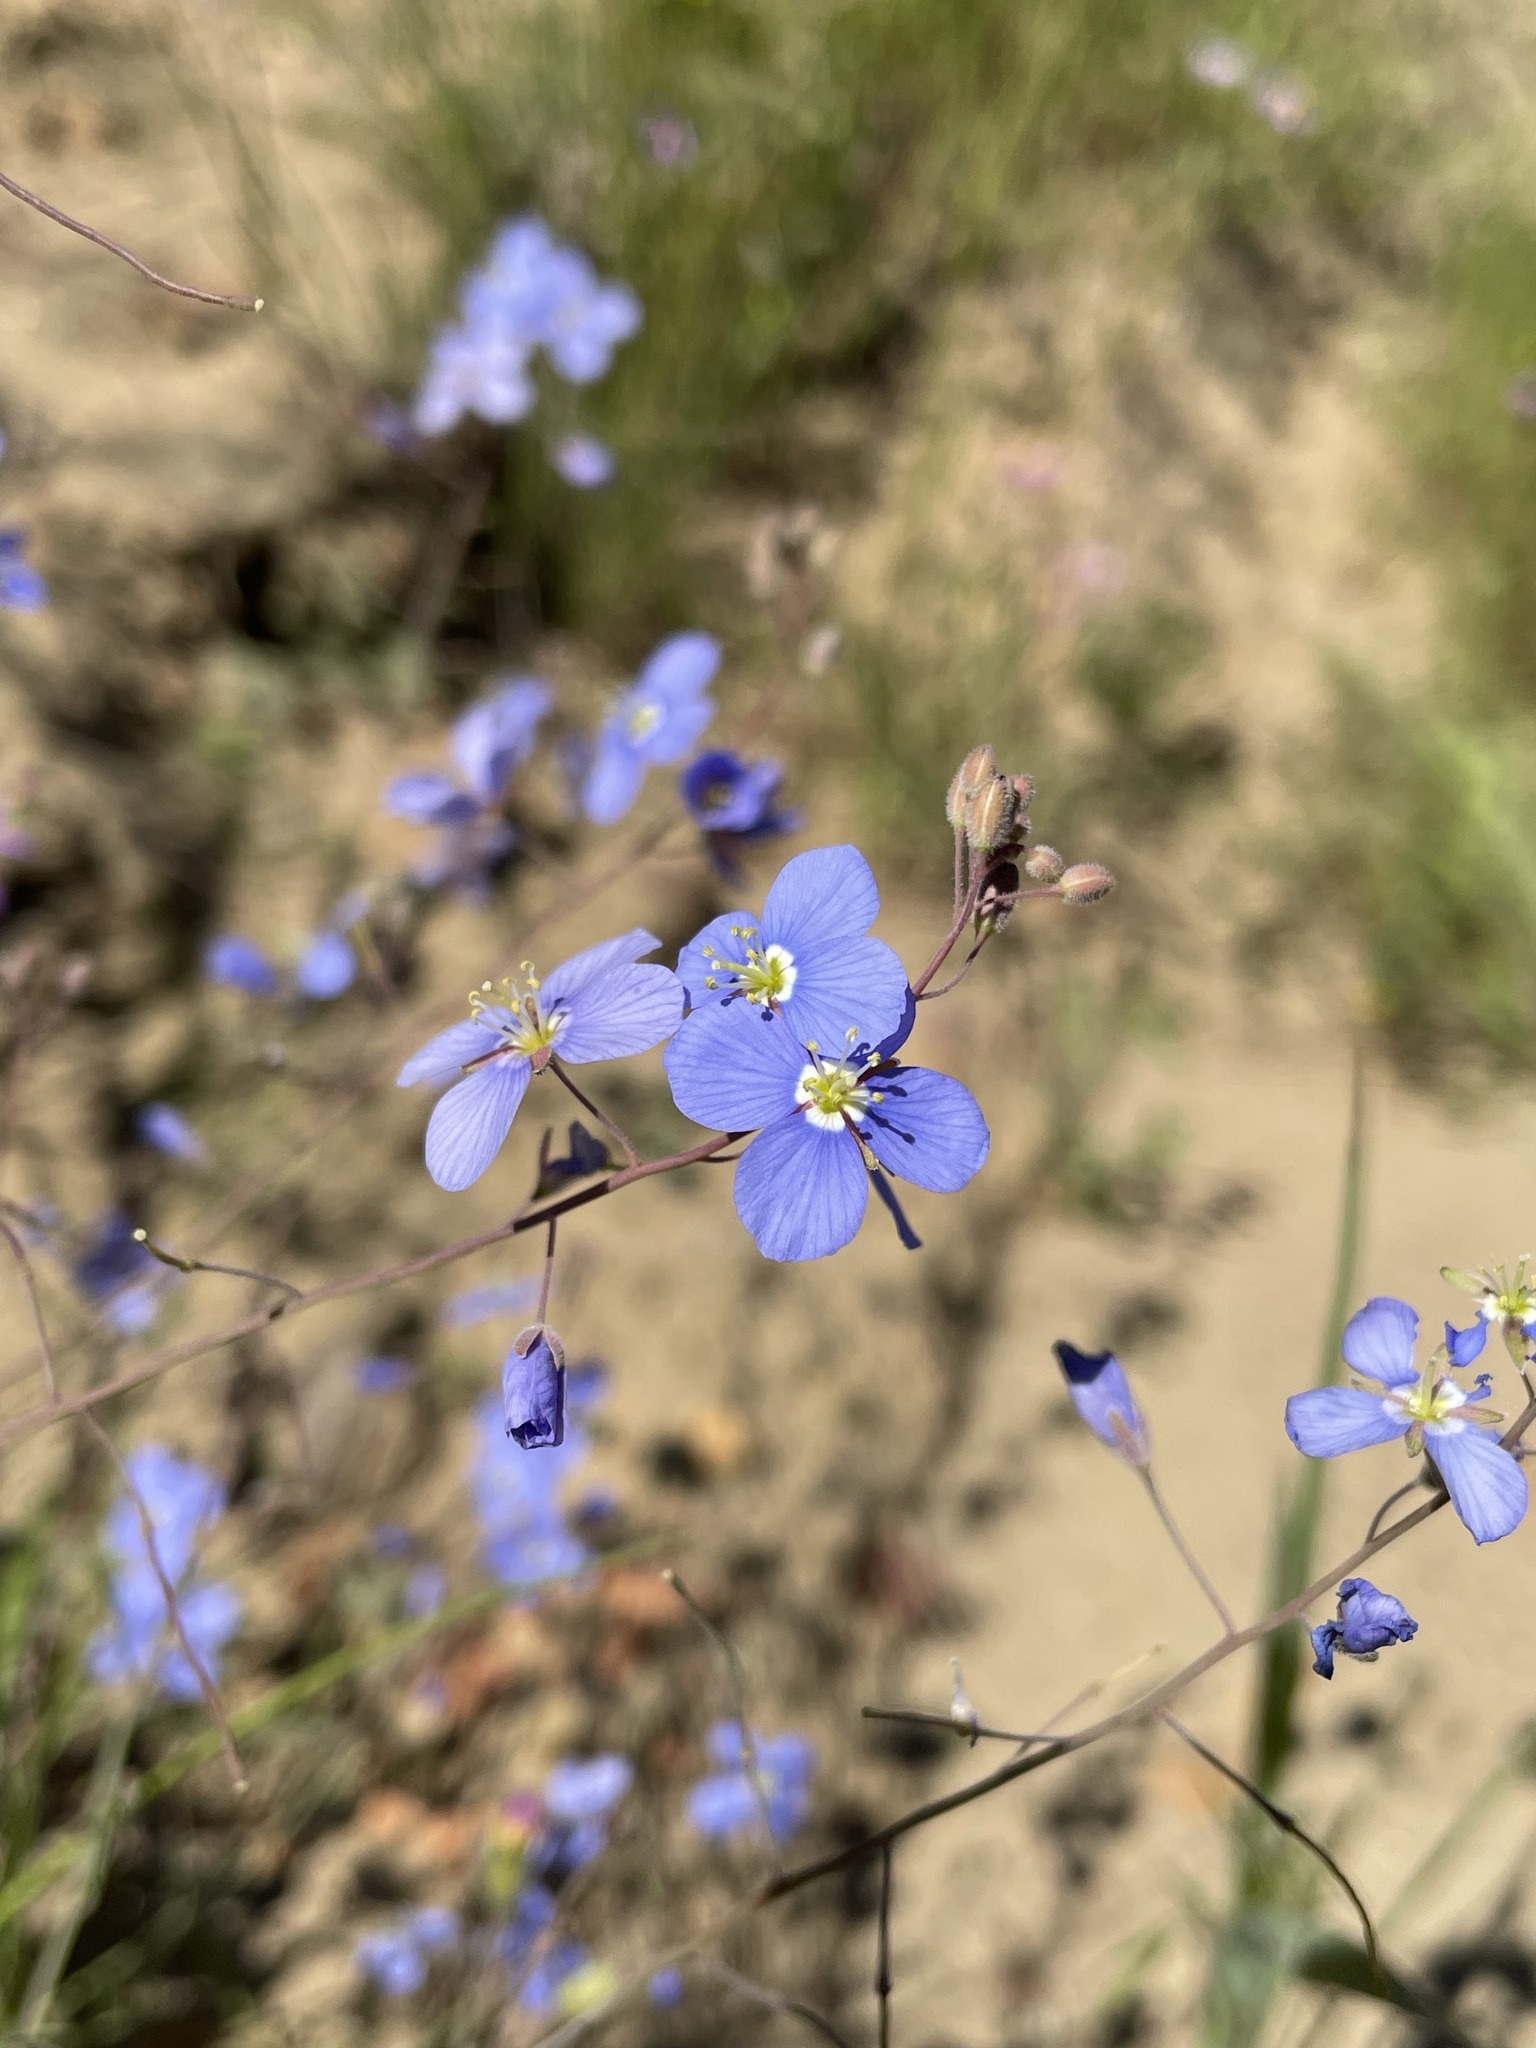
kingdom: Plantae
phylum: Tracheophyta
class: Magnoliopsida
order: Brassicales
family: Brassicaceae
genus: Heliophila
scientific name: Heliophila arenosa
